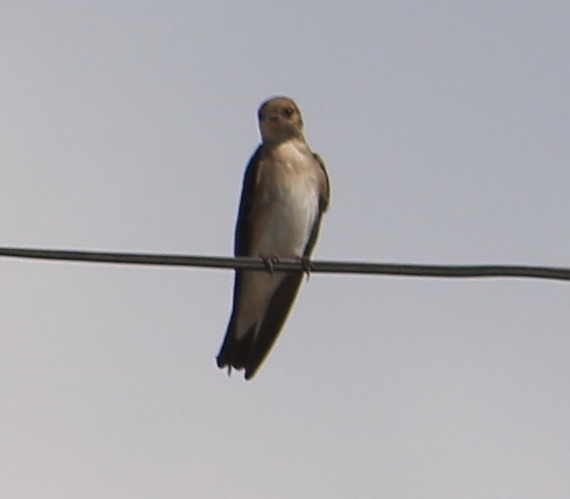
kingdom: Animalia
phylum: Chordata
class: Aves
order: Passeriformes
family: Hirundinidae
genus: Stelgidopteryx
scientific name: Stelgidopteryx serripennis
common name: Northern rough-winged swallow
